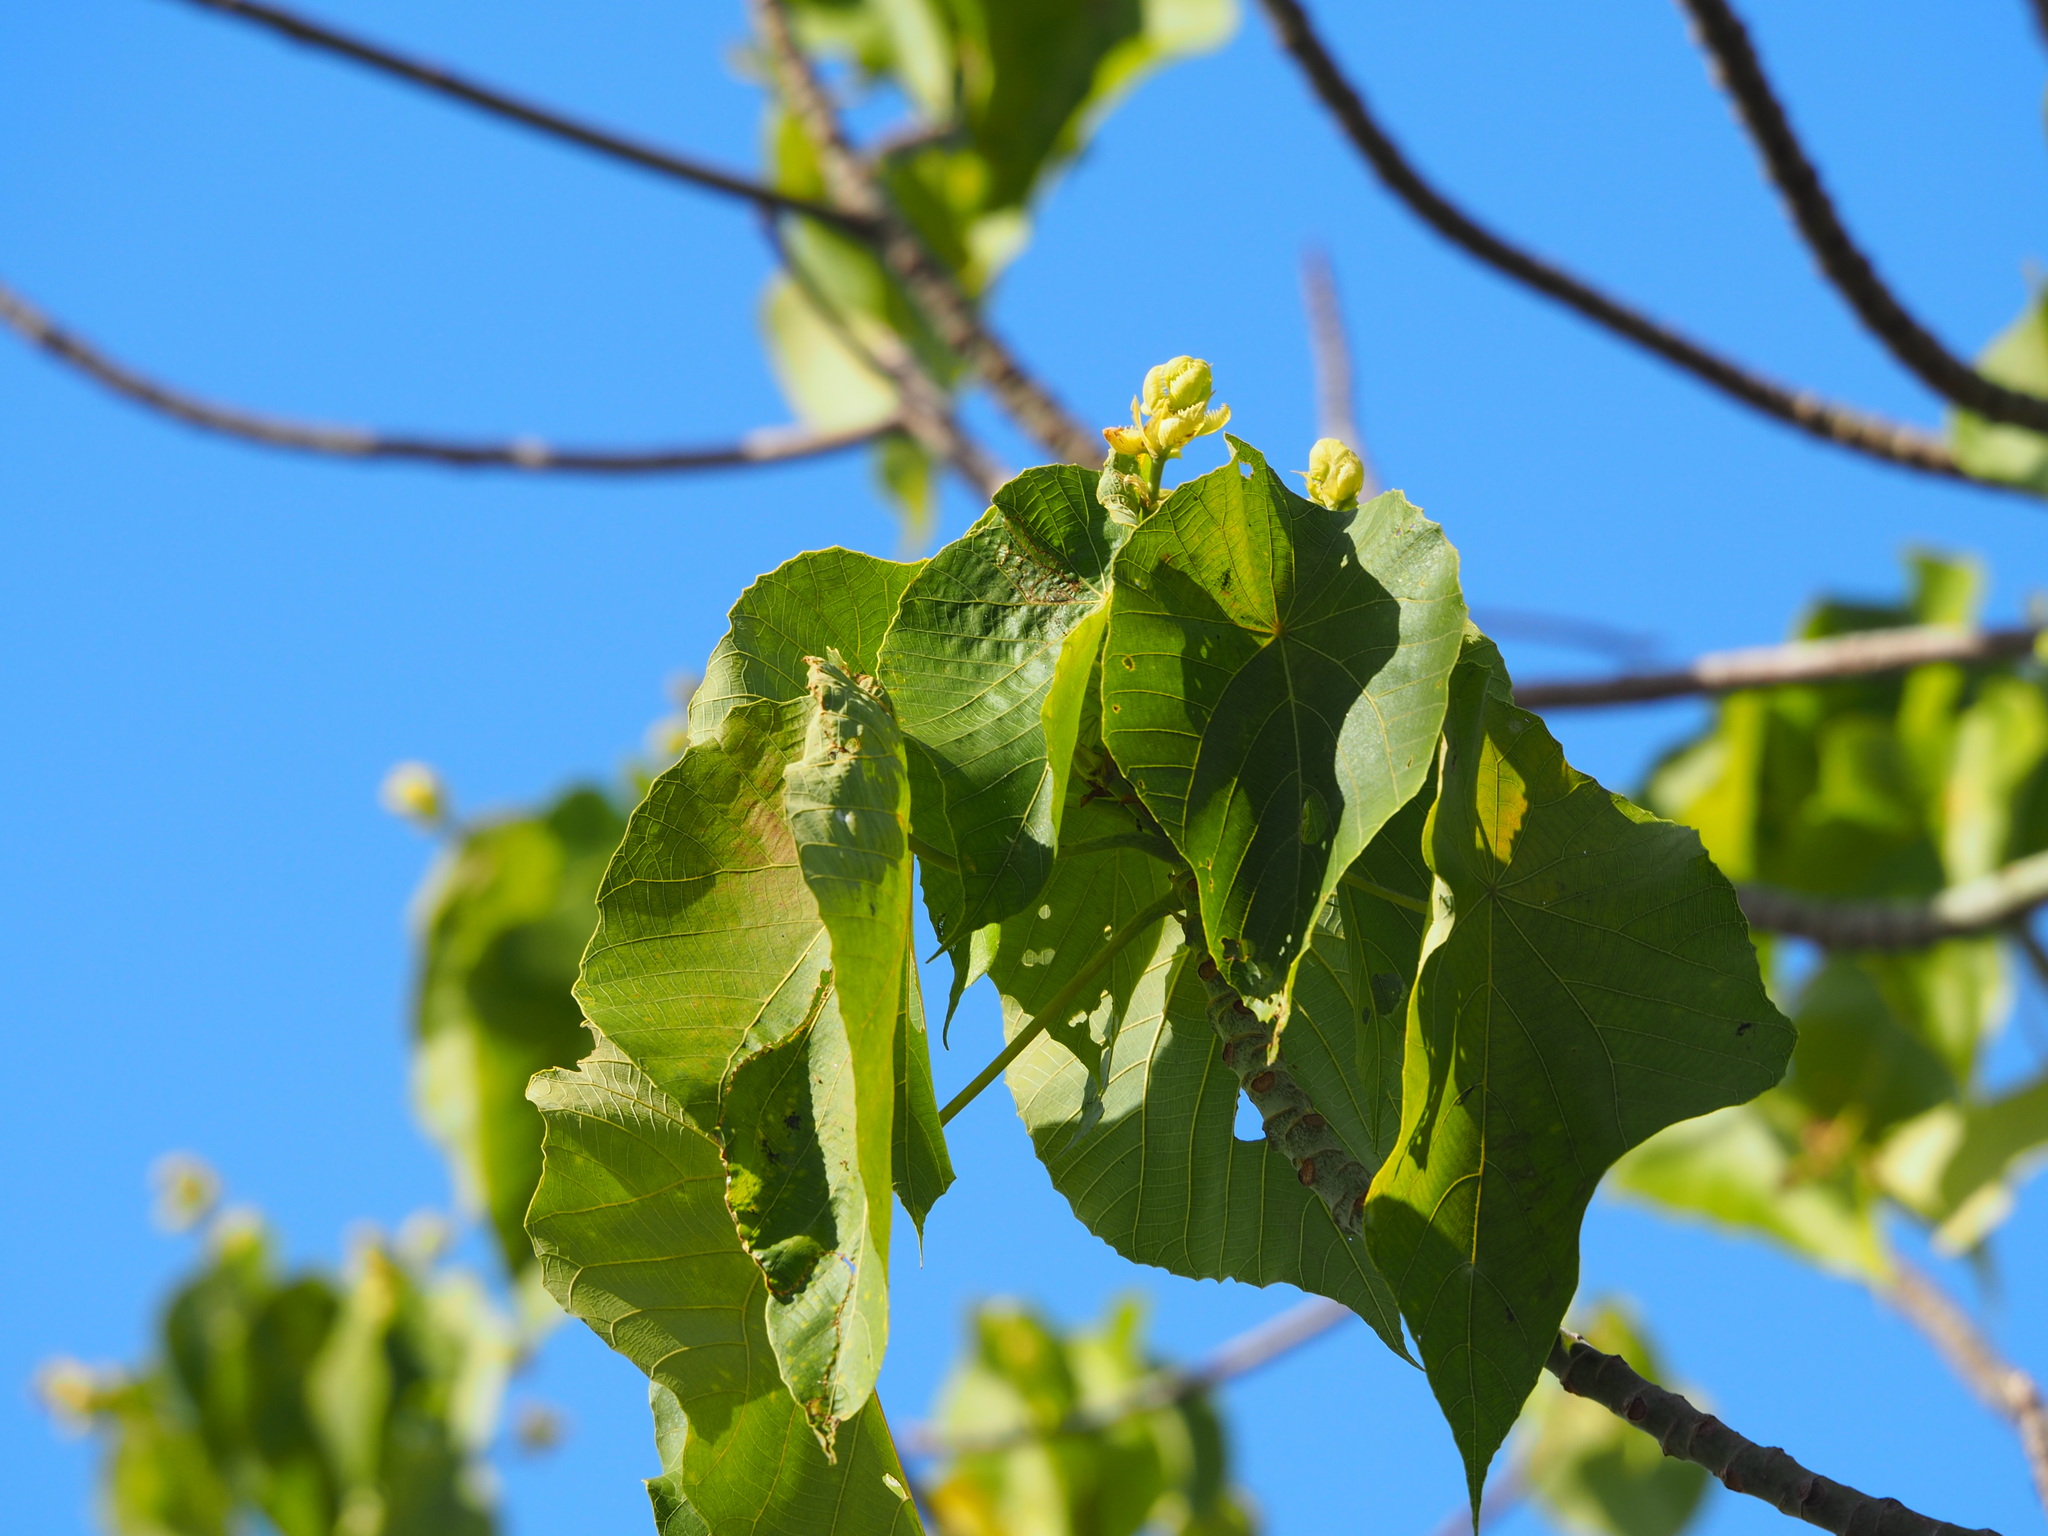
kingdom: Plantae
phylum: Tracheophyta
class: Magnoliopsida
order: Malpighiales
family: Euphorbiaceae
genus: Macaranga
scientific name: Macaranga tanarius
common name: Parasol leaf tree
